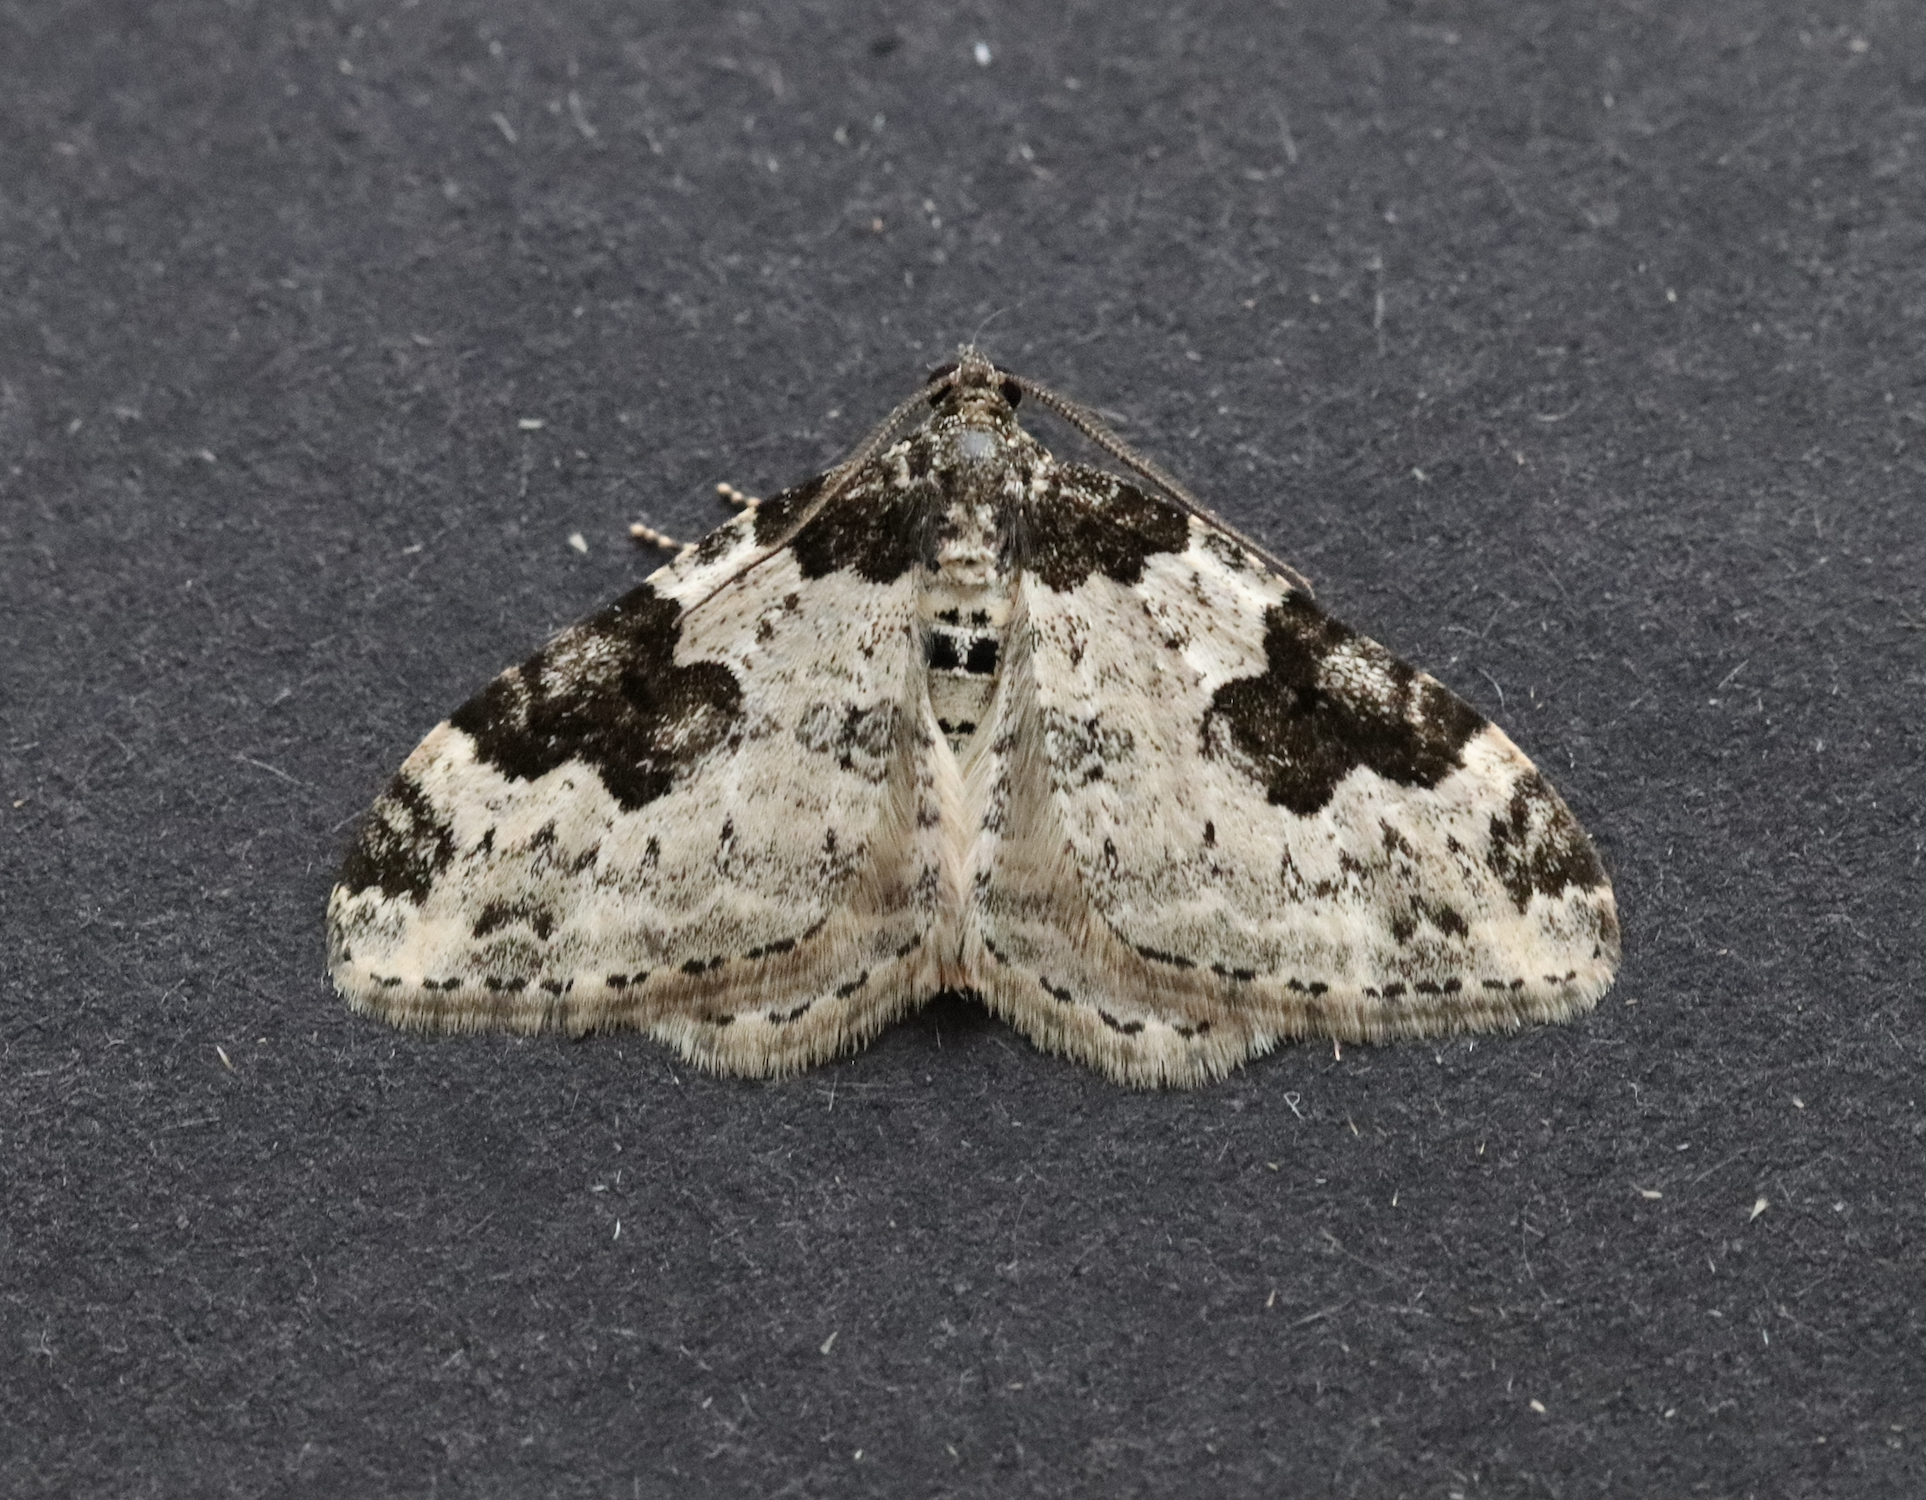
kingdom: Animalia
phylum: Arthropoda
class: Insecta
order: Lepidoptera
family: Geometridae
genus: Xanthorhoe
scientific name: Xanthorhoe fluctuata
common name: Garden carpet
